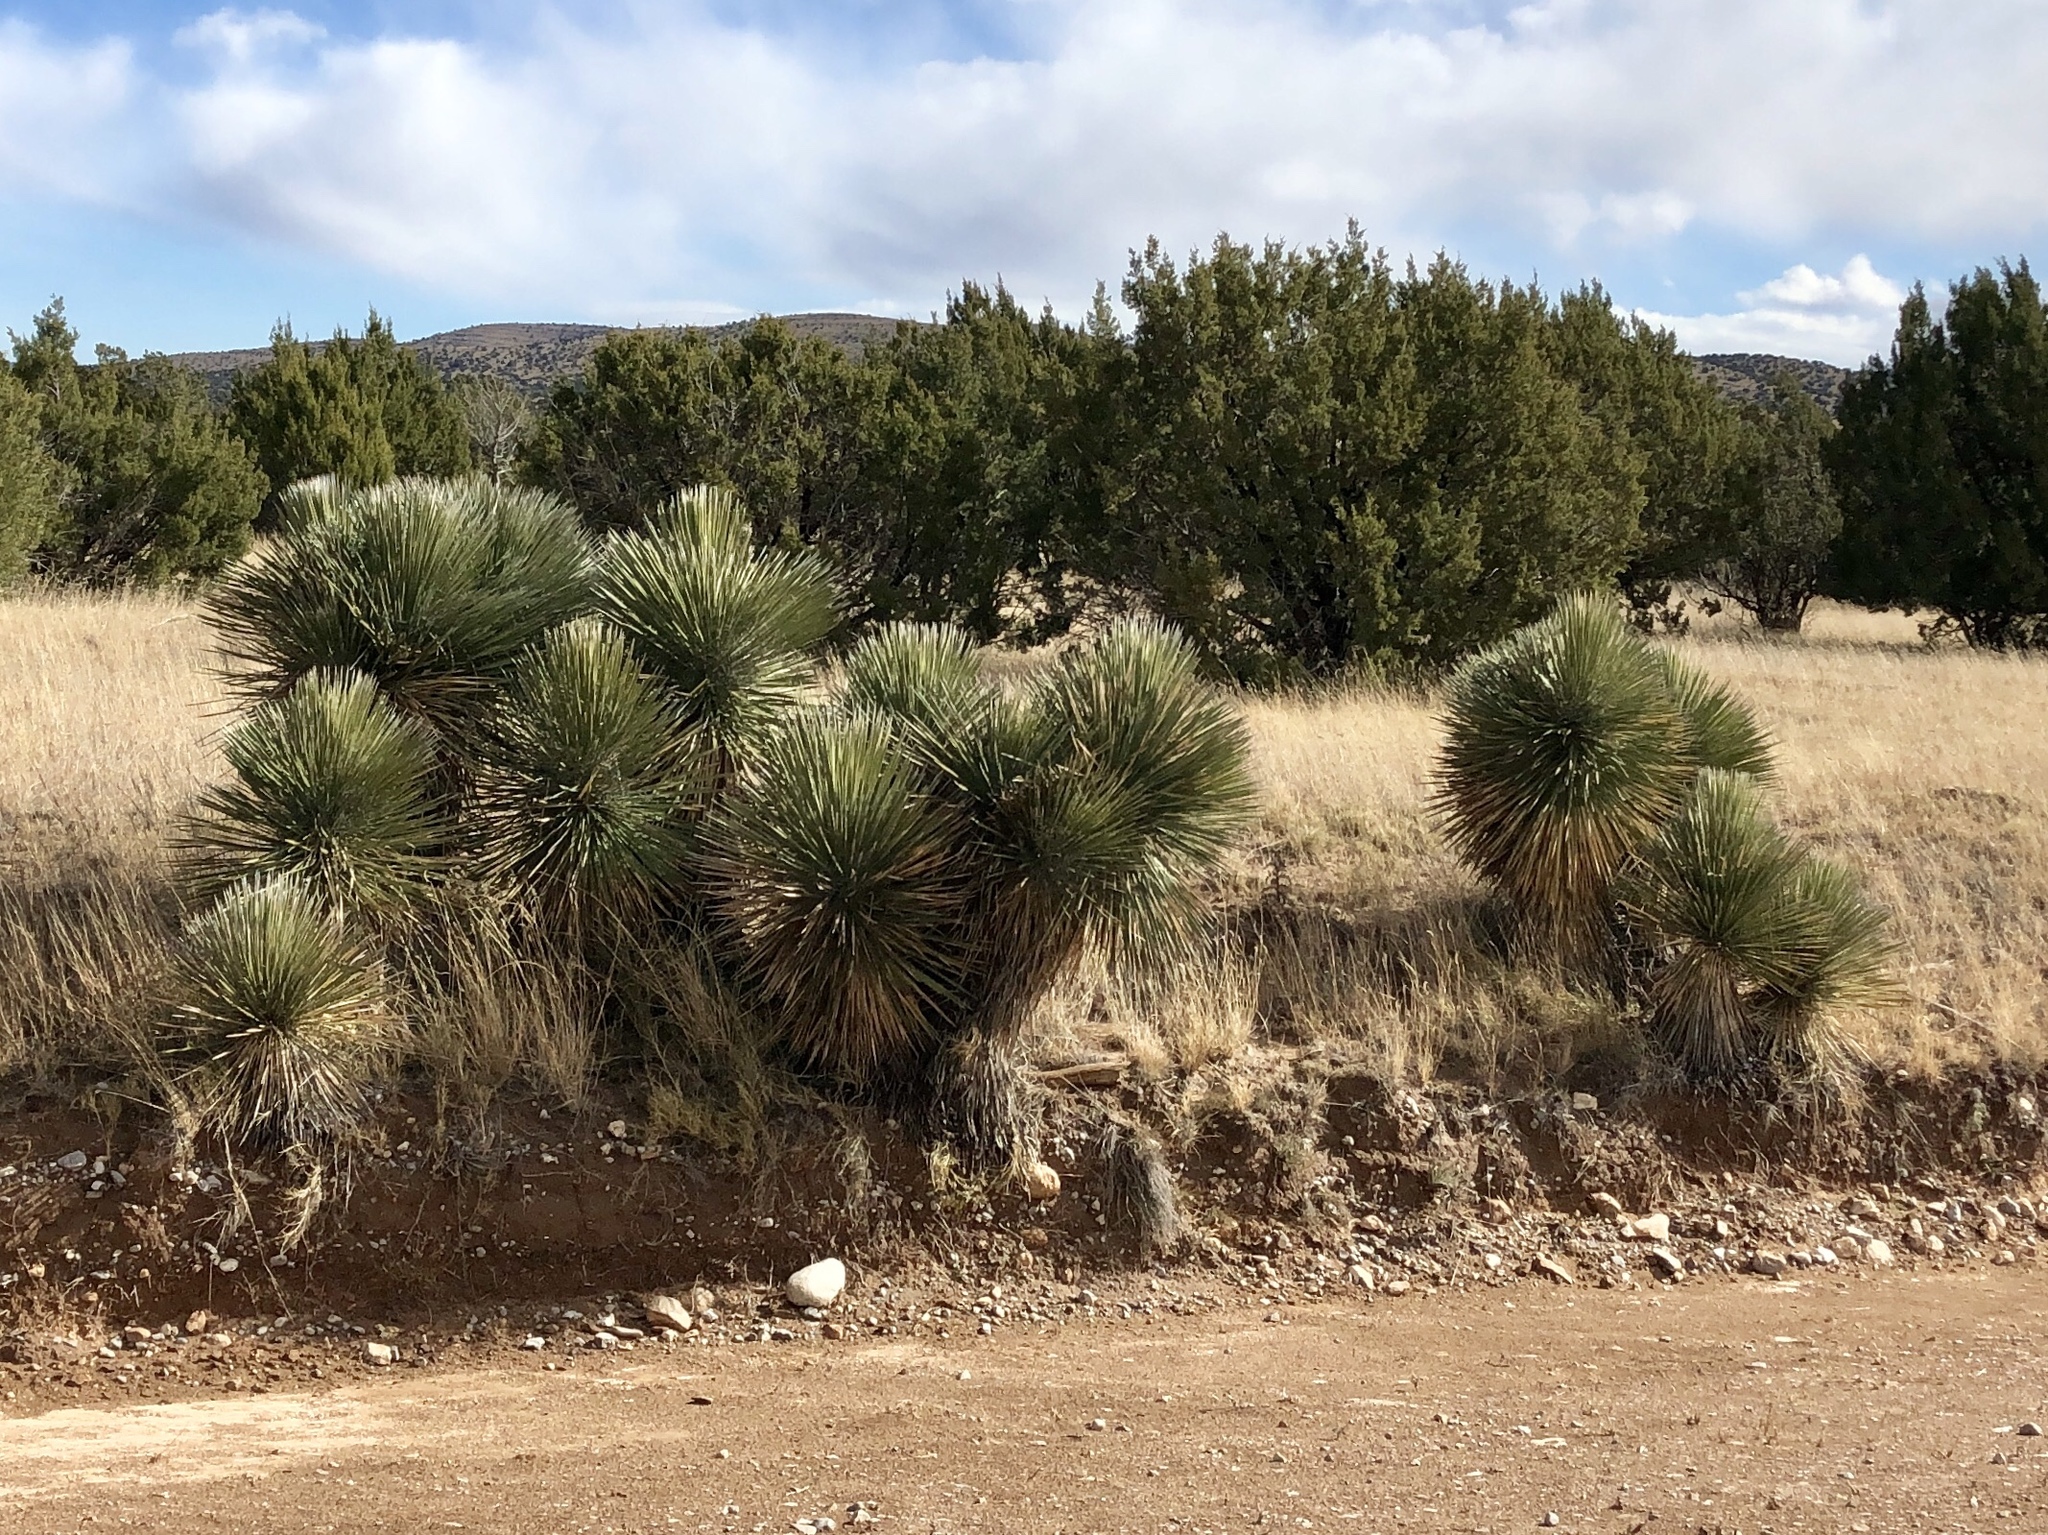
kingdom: Plantae
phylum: Tracheophyta
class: Liliopsida
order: Asparagales
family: Asparagaceae
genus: Yucca
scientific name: Yucca elata
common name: Palmella
